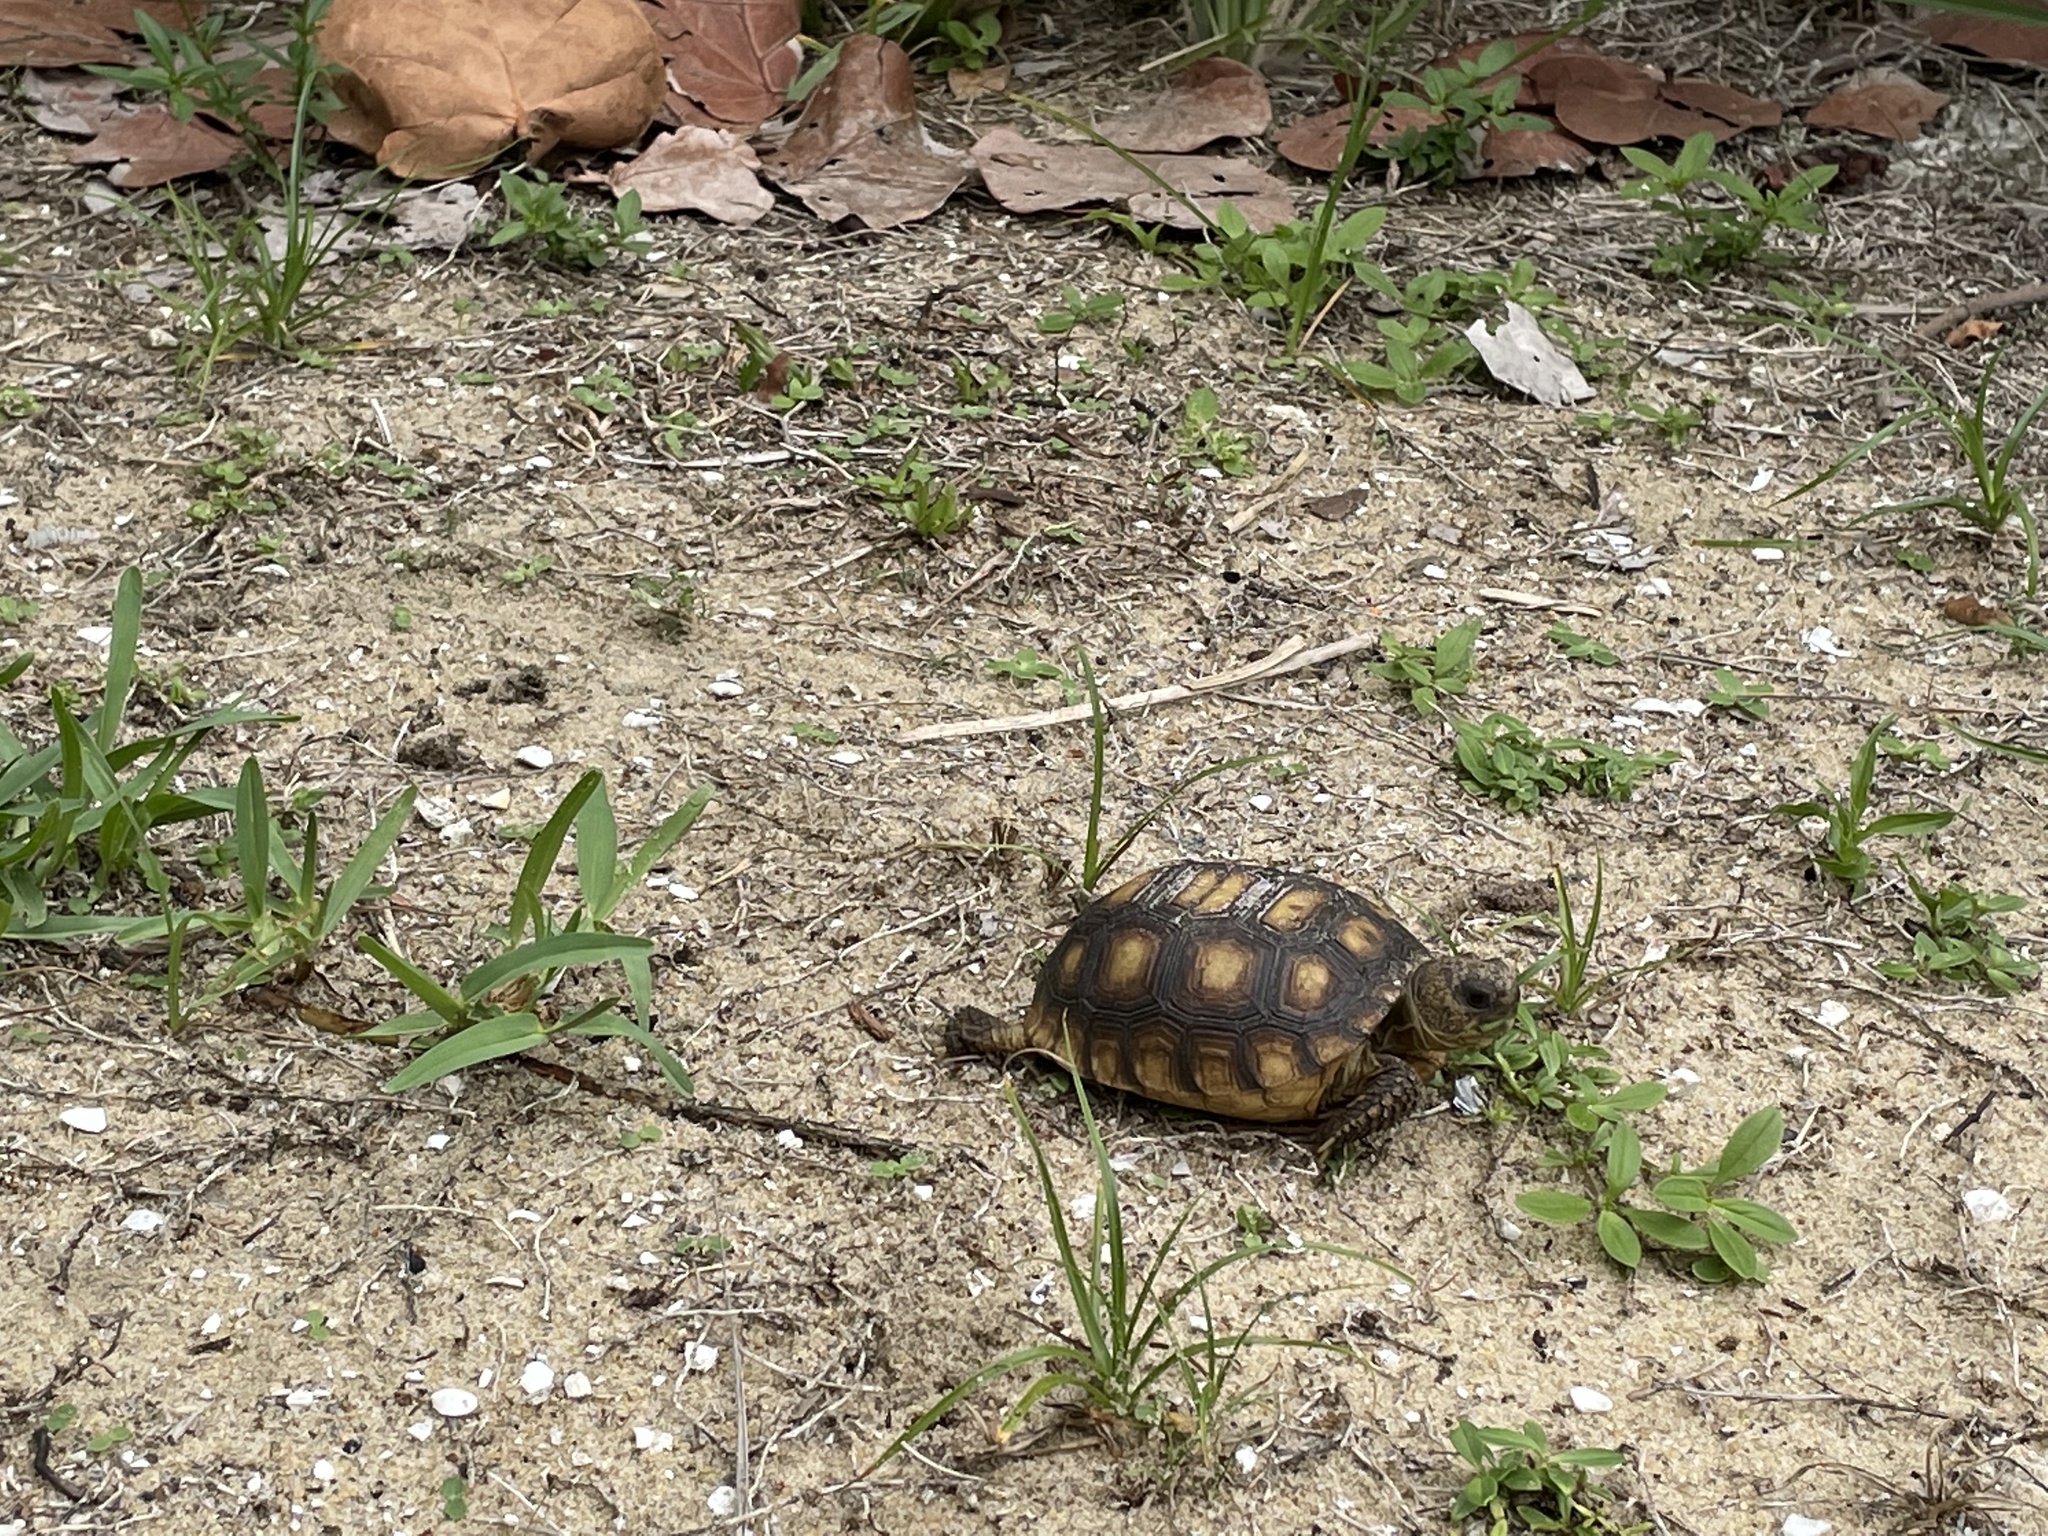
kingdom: Animalia
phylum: Chordata
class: Testudines
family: Testudinidae
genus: Gopherus
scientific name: Gopherus polyphemus
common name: Florida gopher tortoise
